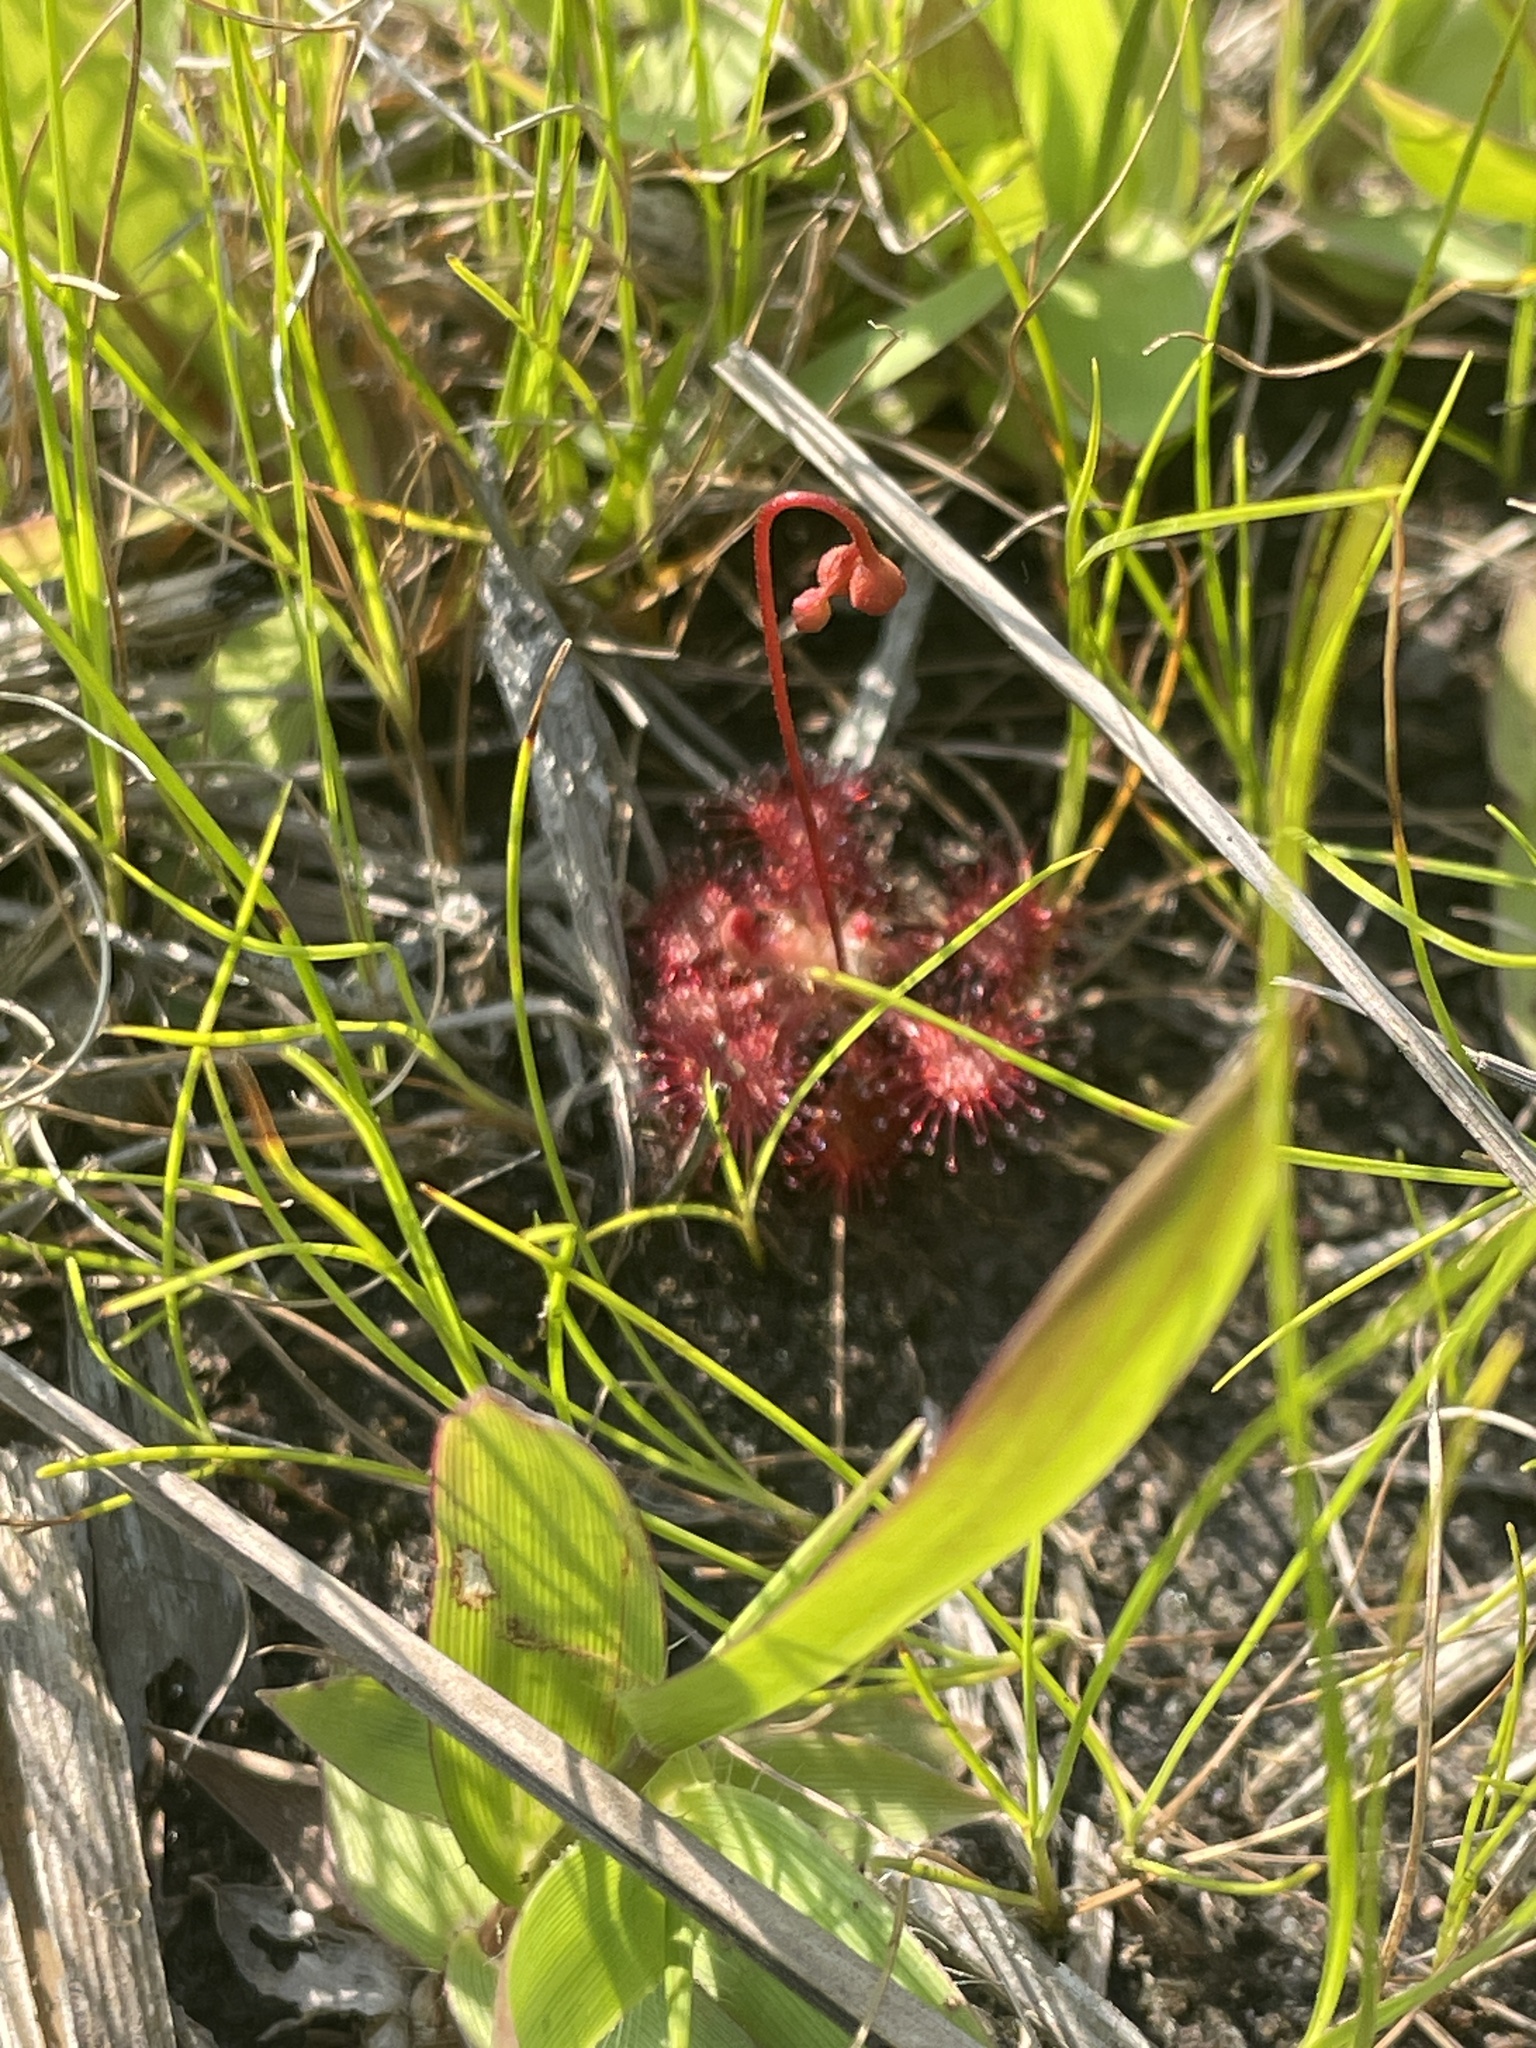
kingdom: Plantae
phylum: Tracheophyta
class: Magnoliopsida
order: Caryophyllales
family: Droseraceae
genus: Drosera
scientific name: Drosera capillaris
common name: Pink sundew
